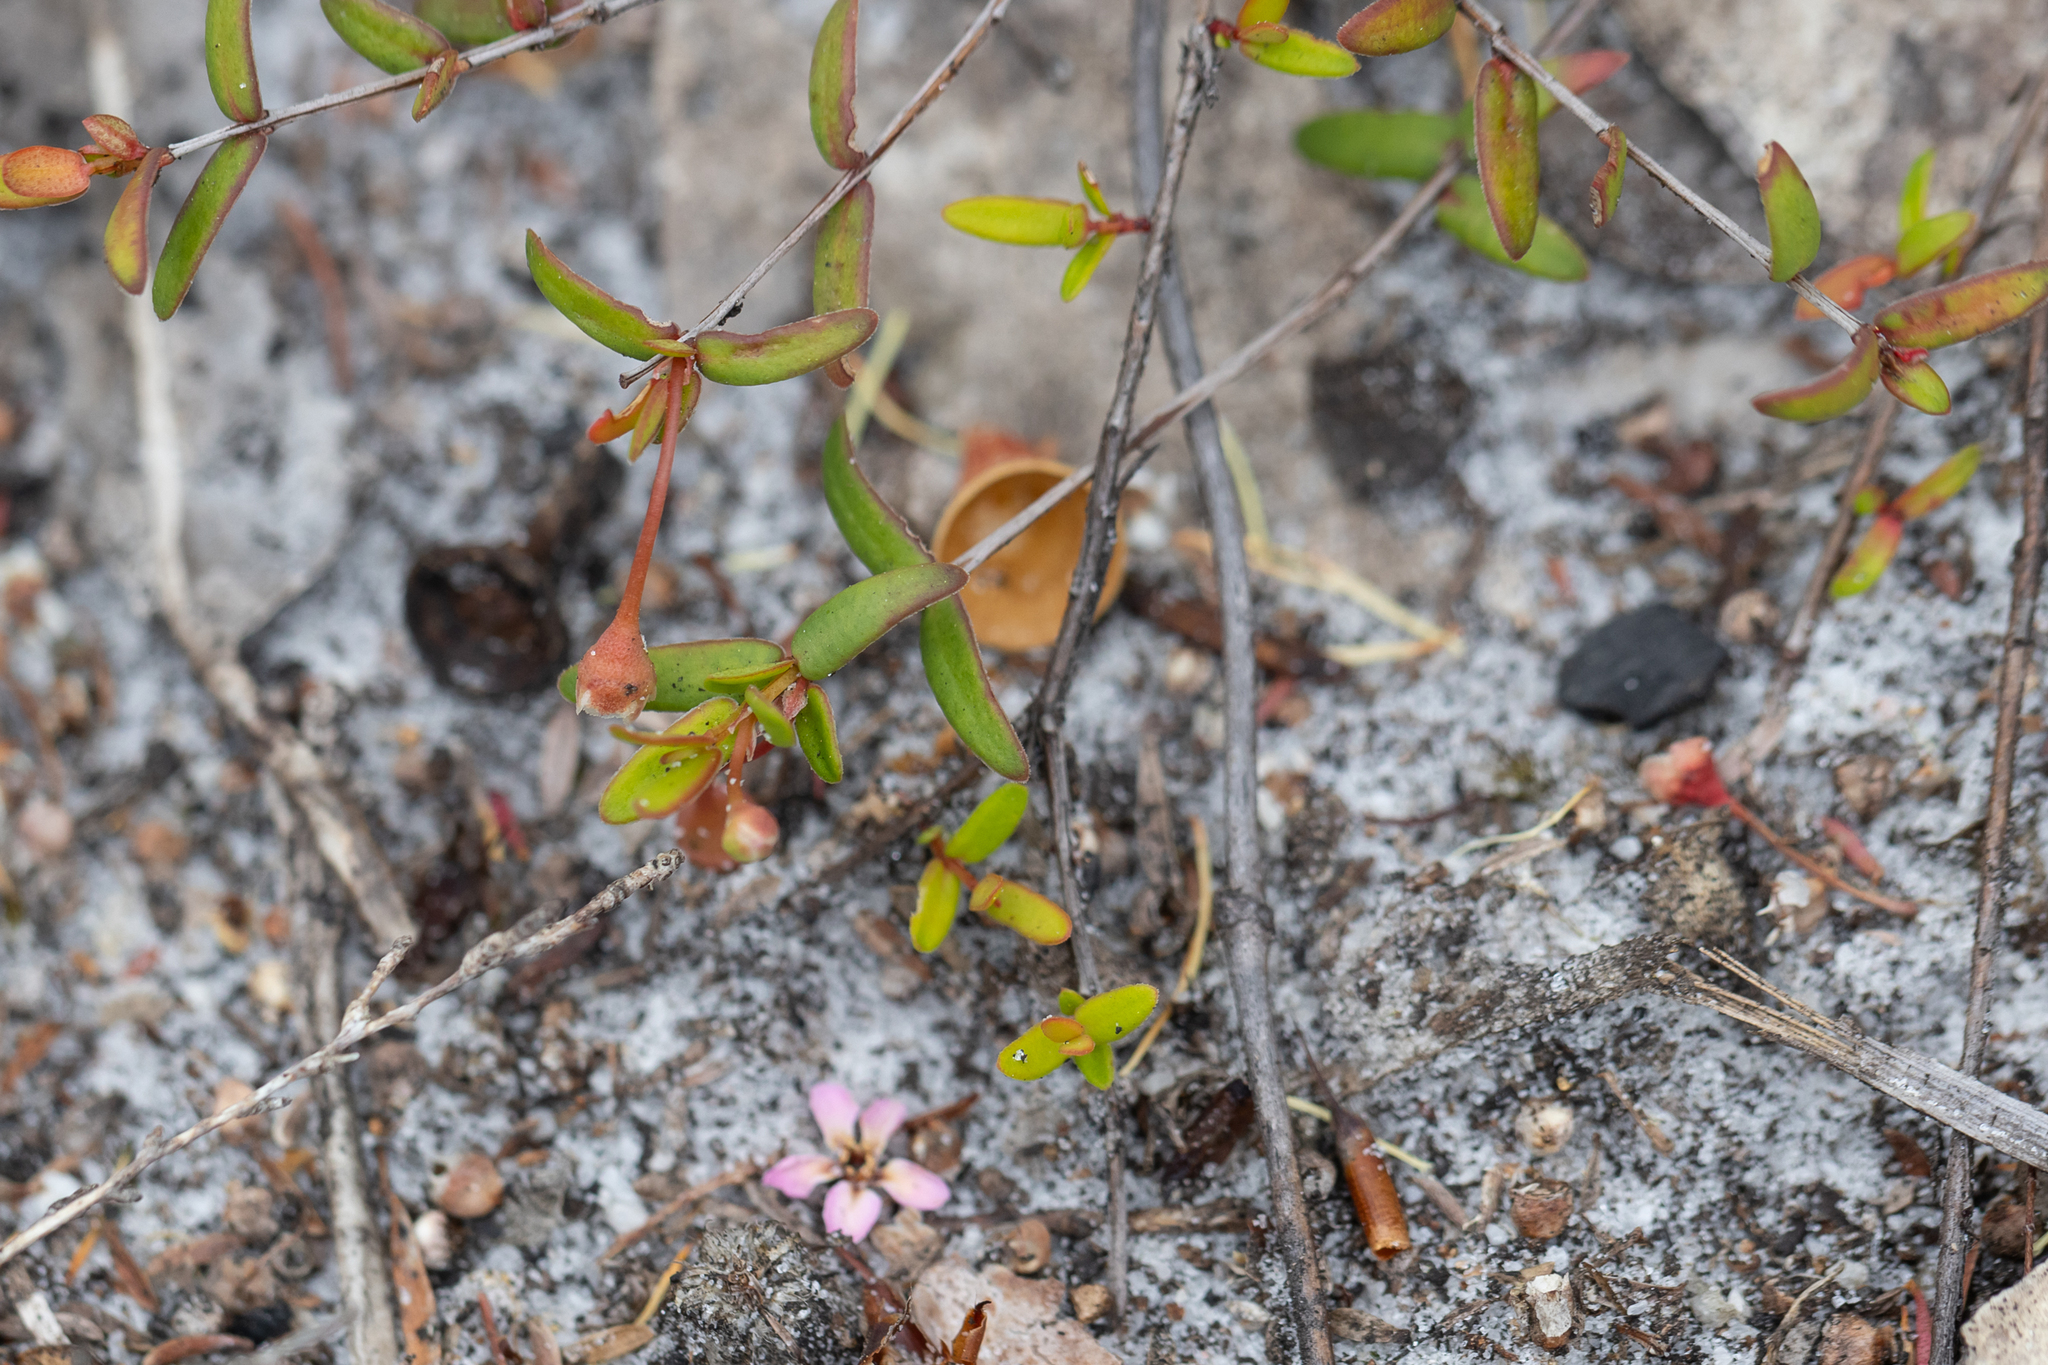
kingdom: Plantae
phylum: Tracheophyta
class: Magnoliopsida
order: Myrtales
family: Myrtaceae
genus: Rinzia
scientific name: Rinzia schollerifolia
